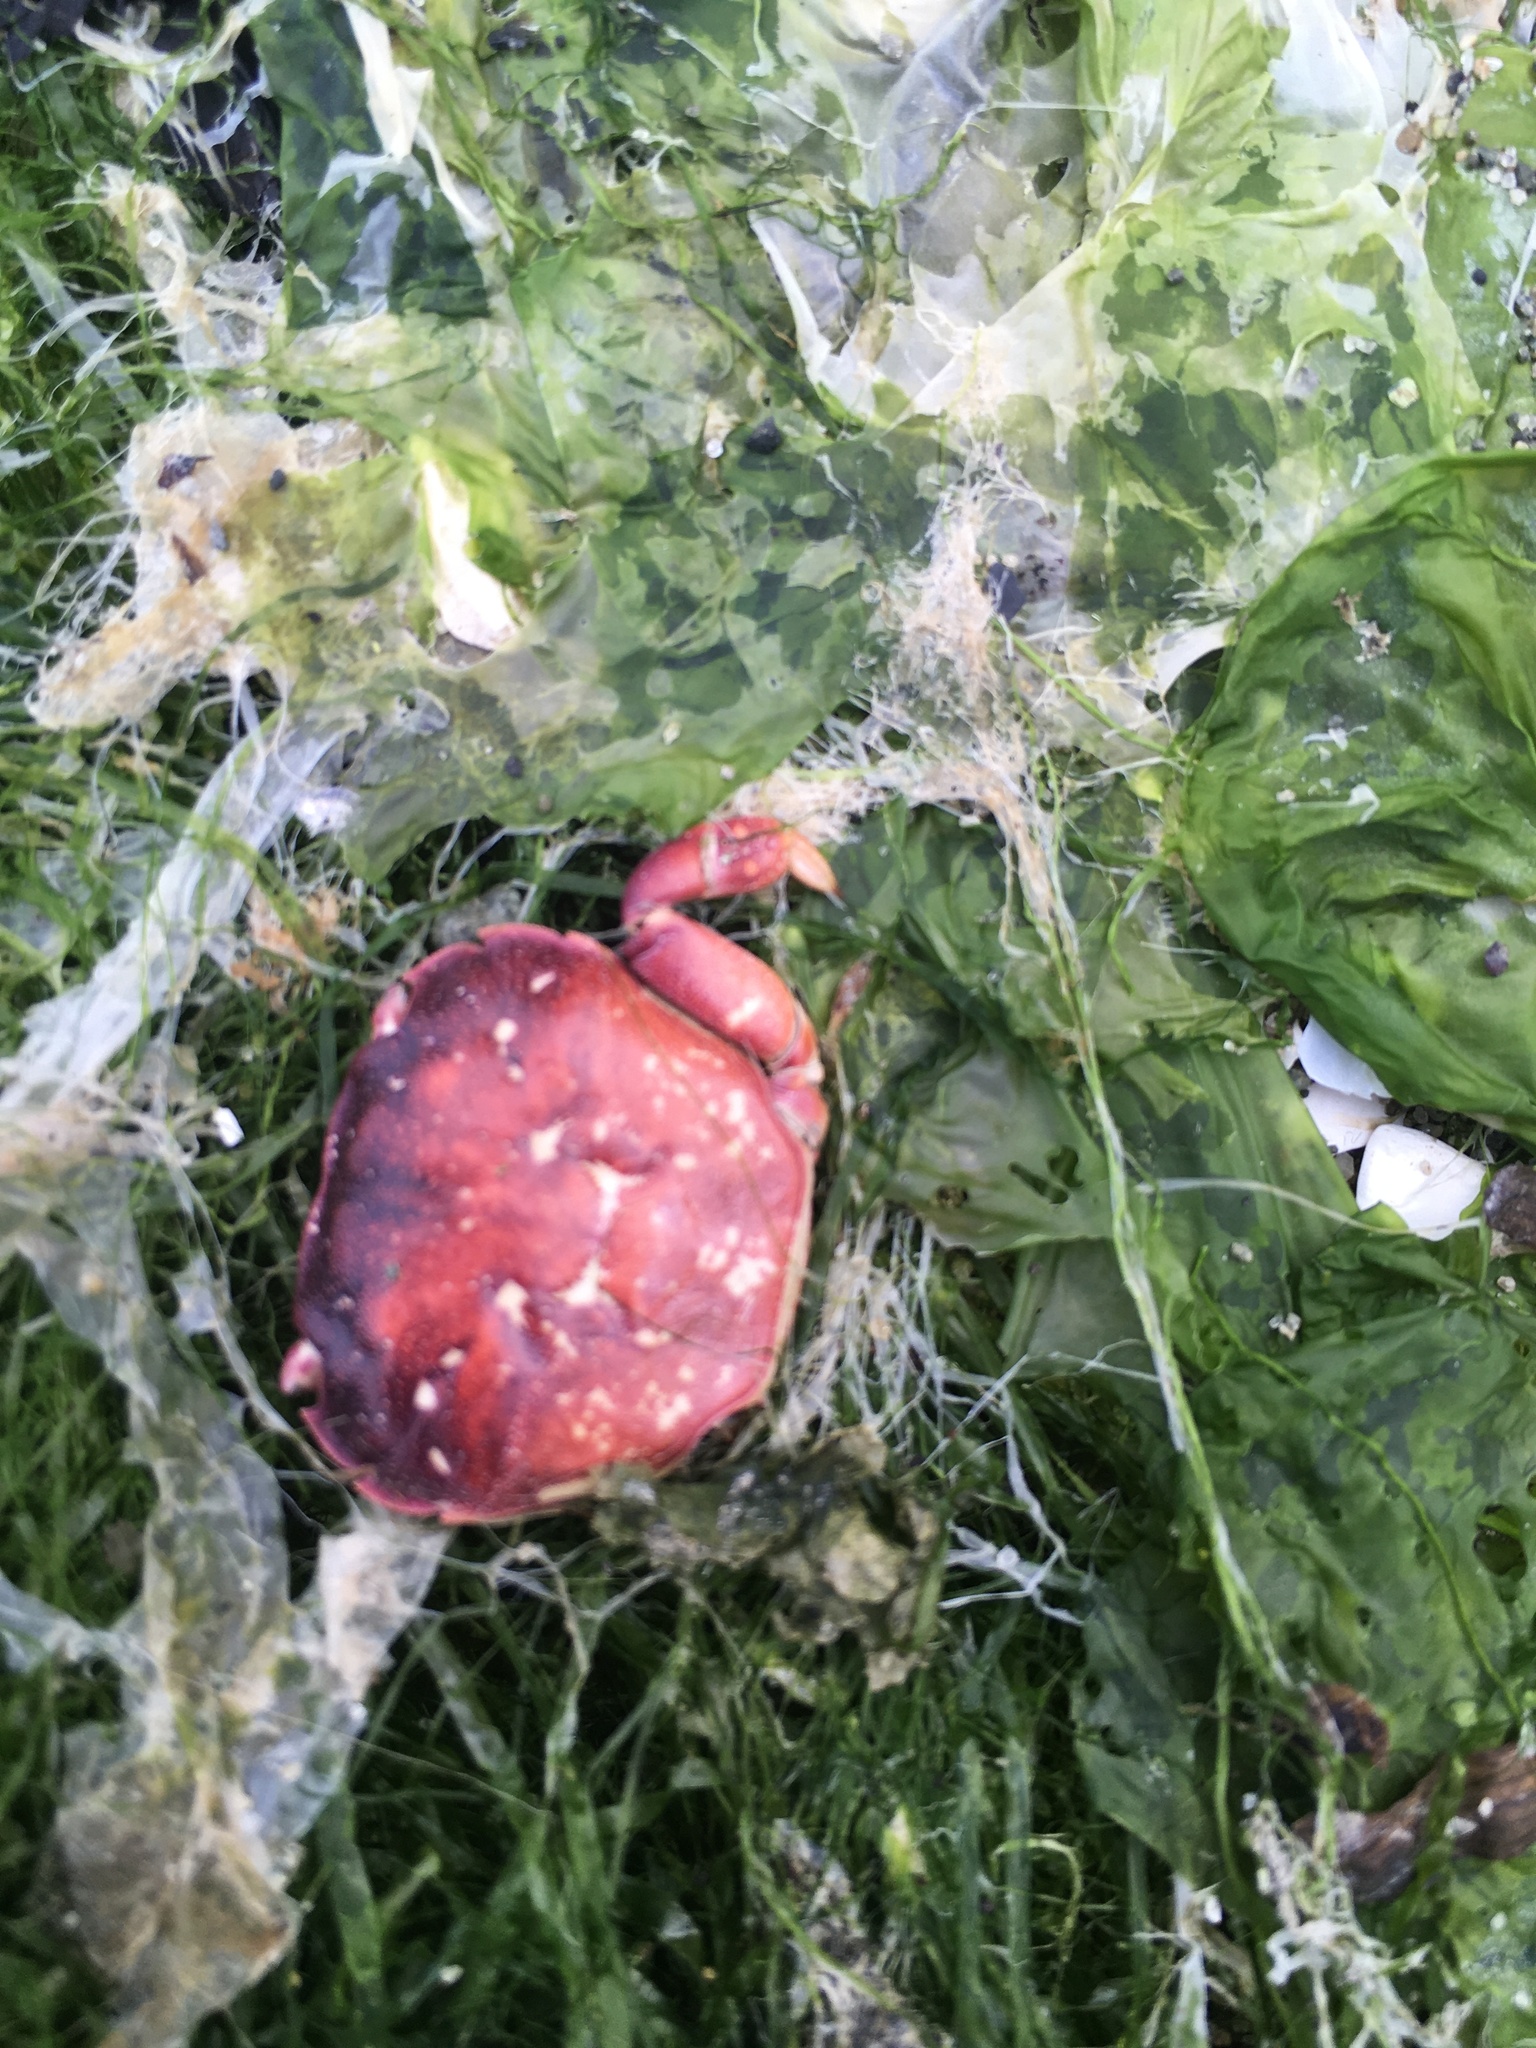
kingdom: Animalia
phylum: Arthropoda
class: Malacostraca
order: Decapoda
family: Varunidae
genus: Hemigrapsus
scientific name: Hemigrapsus nudus
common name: Purple shore crab
